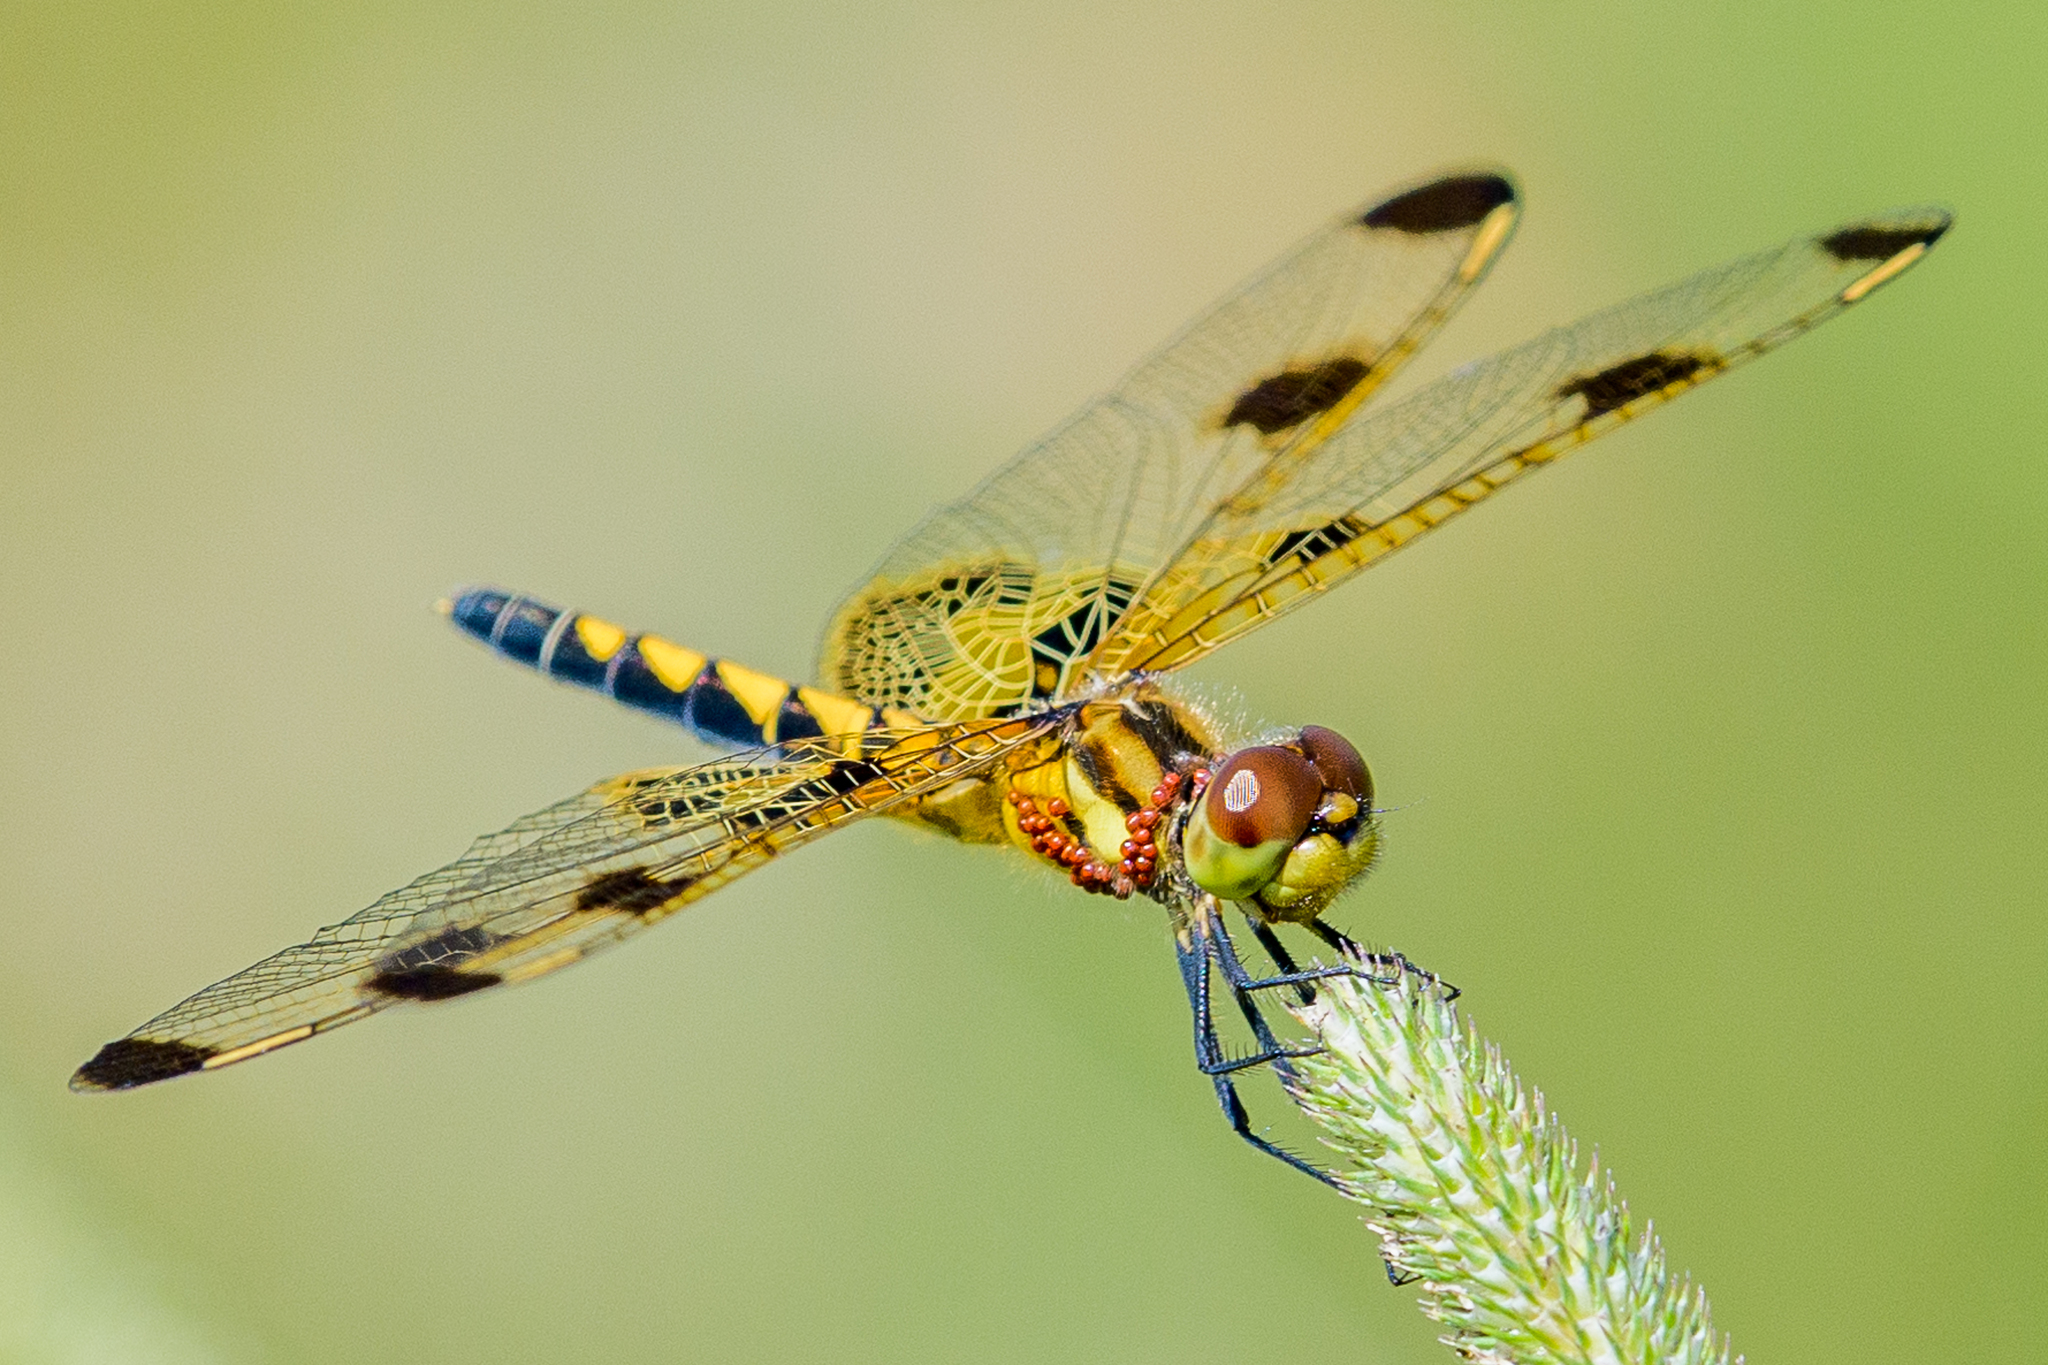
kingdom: Animalia
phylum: Arthropoda
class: Insecta
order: Odonata
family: Libellulidae
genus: Celithemis
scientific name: Celithemis elisa
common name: Calico pennant
